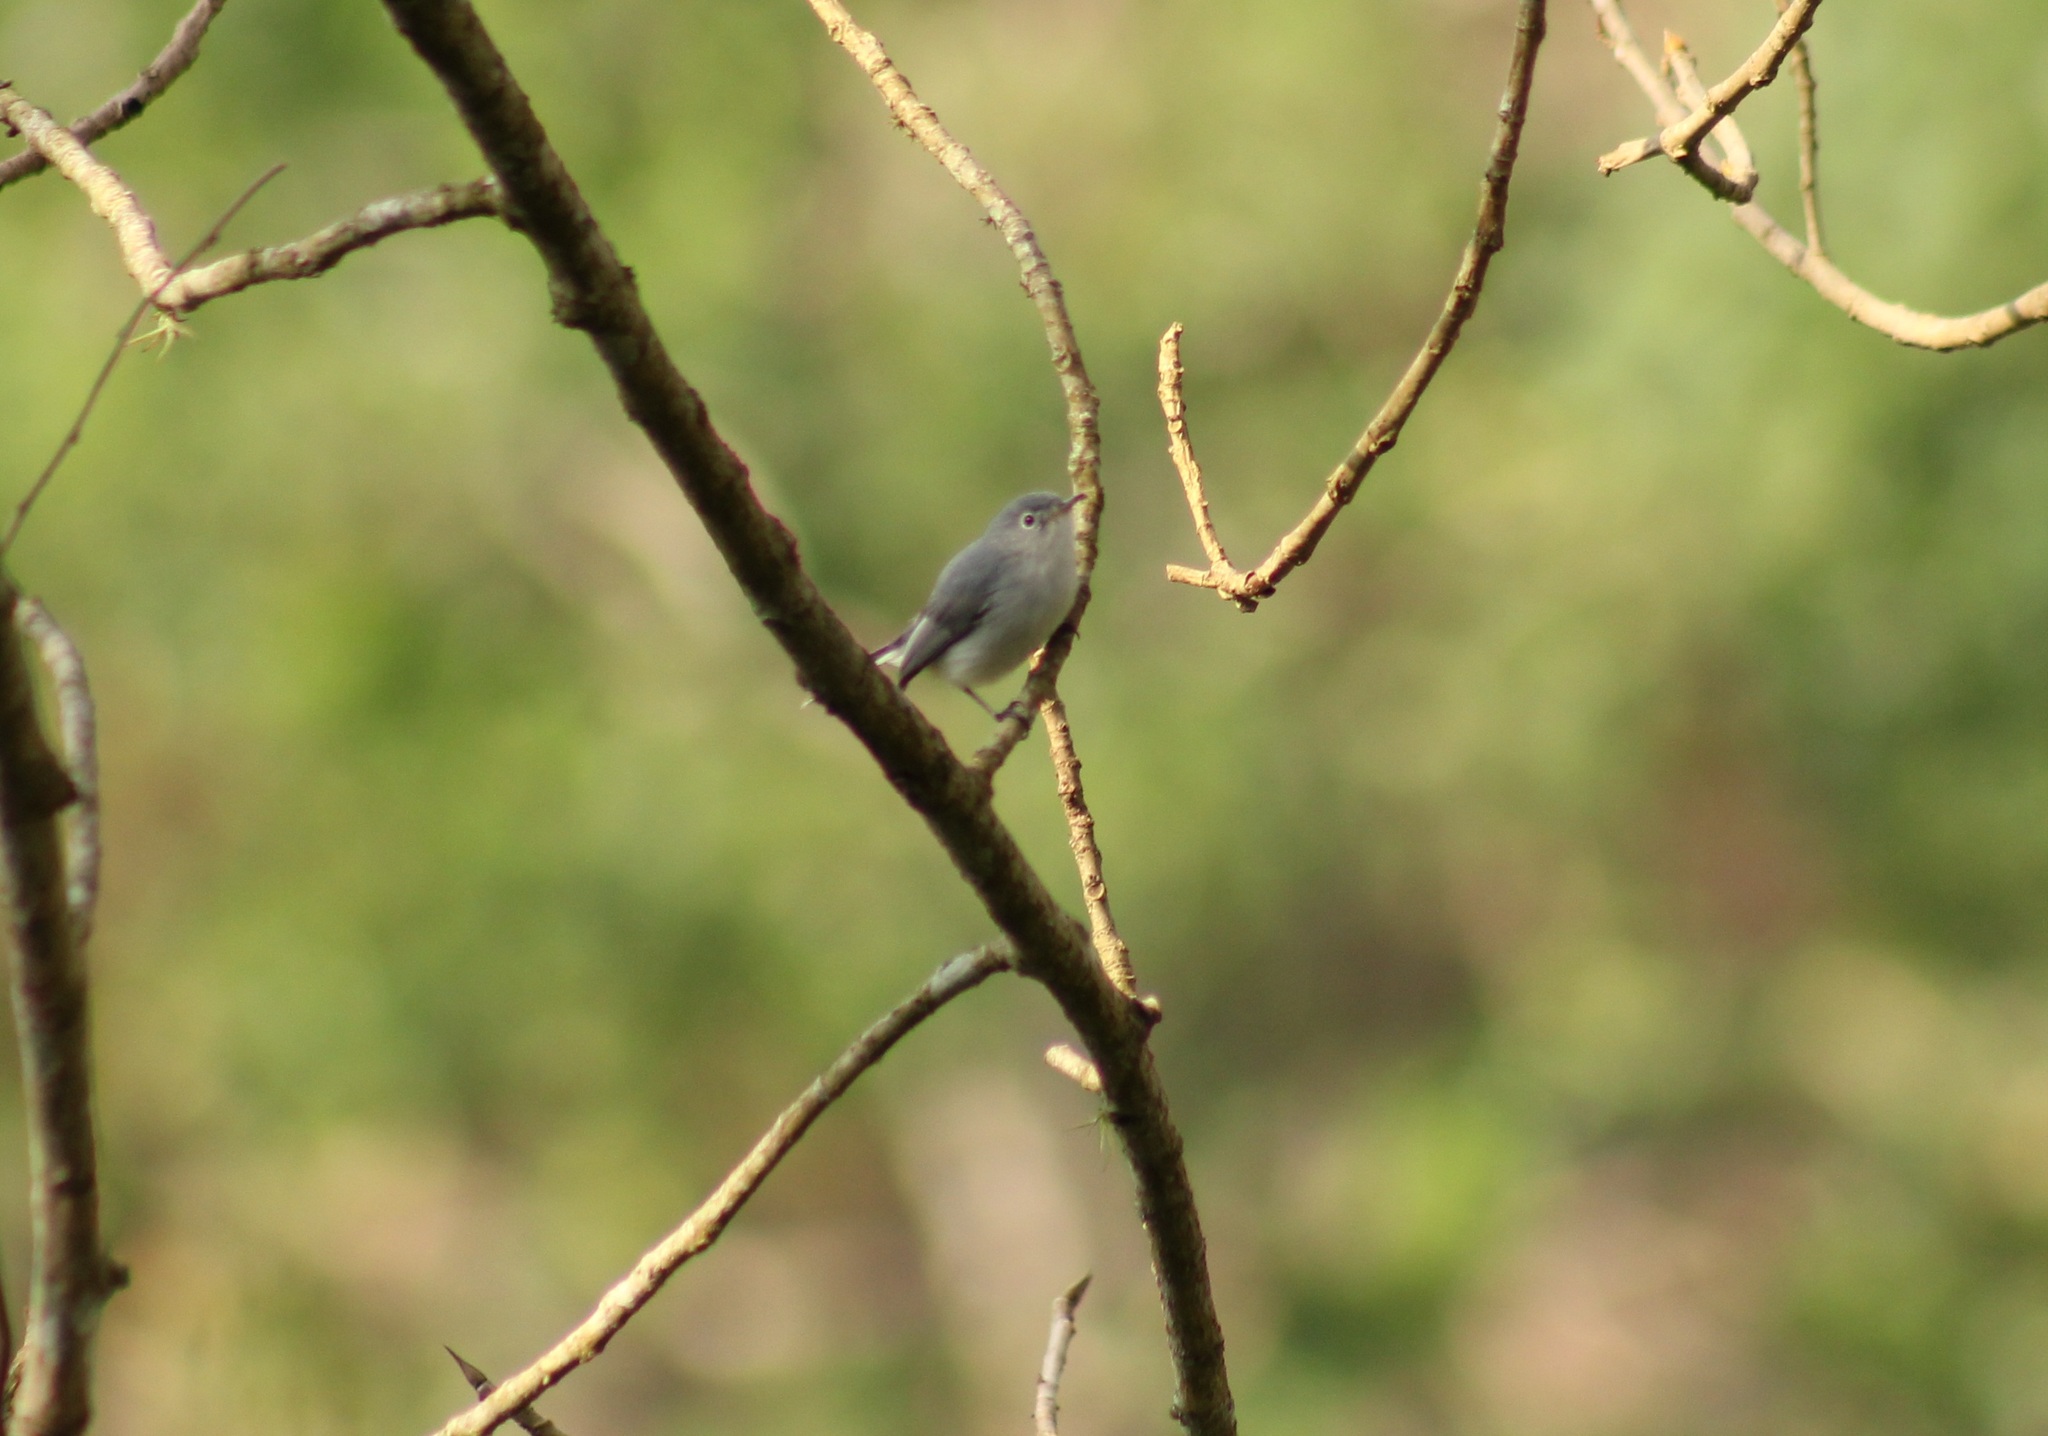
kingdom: Animalia
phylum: Chordata
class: Aves
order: Passeriformes
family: Polioptilidae
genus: Polioptila
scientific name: Polioptila caerulea
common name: Blue-gray gnatcatcher
